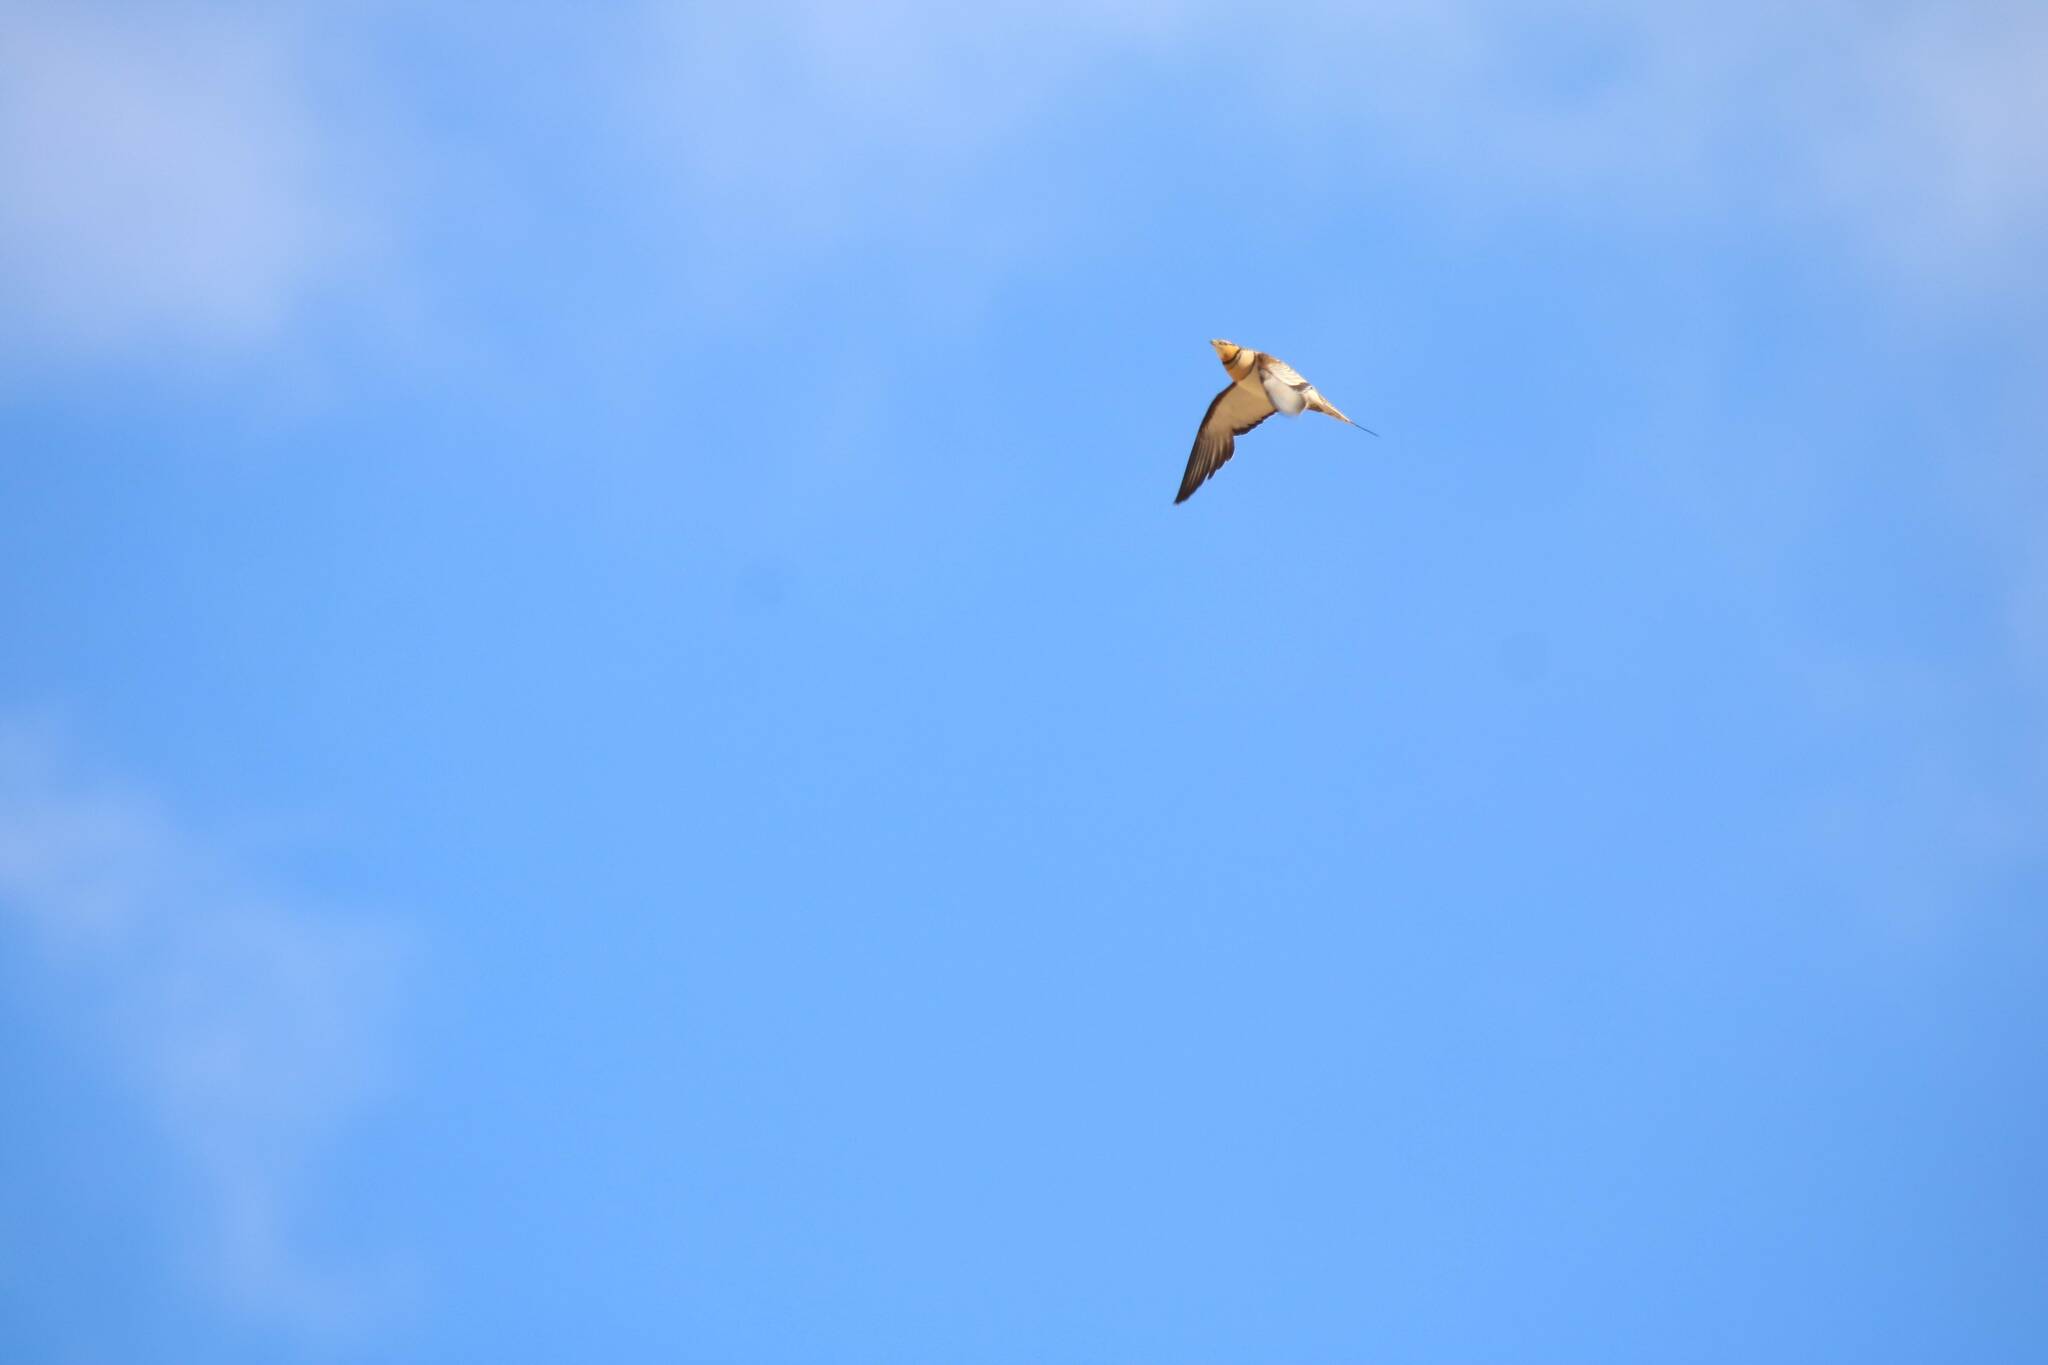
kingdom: Animalia
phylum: Chordata
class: Aves
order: Pteroclidiformes
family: Pteroclididae
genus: Pterocles
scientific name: Pterocles alchata
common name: Pin-tailed sandgrouse
